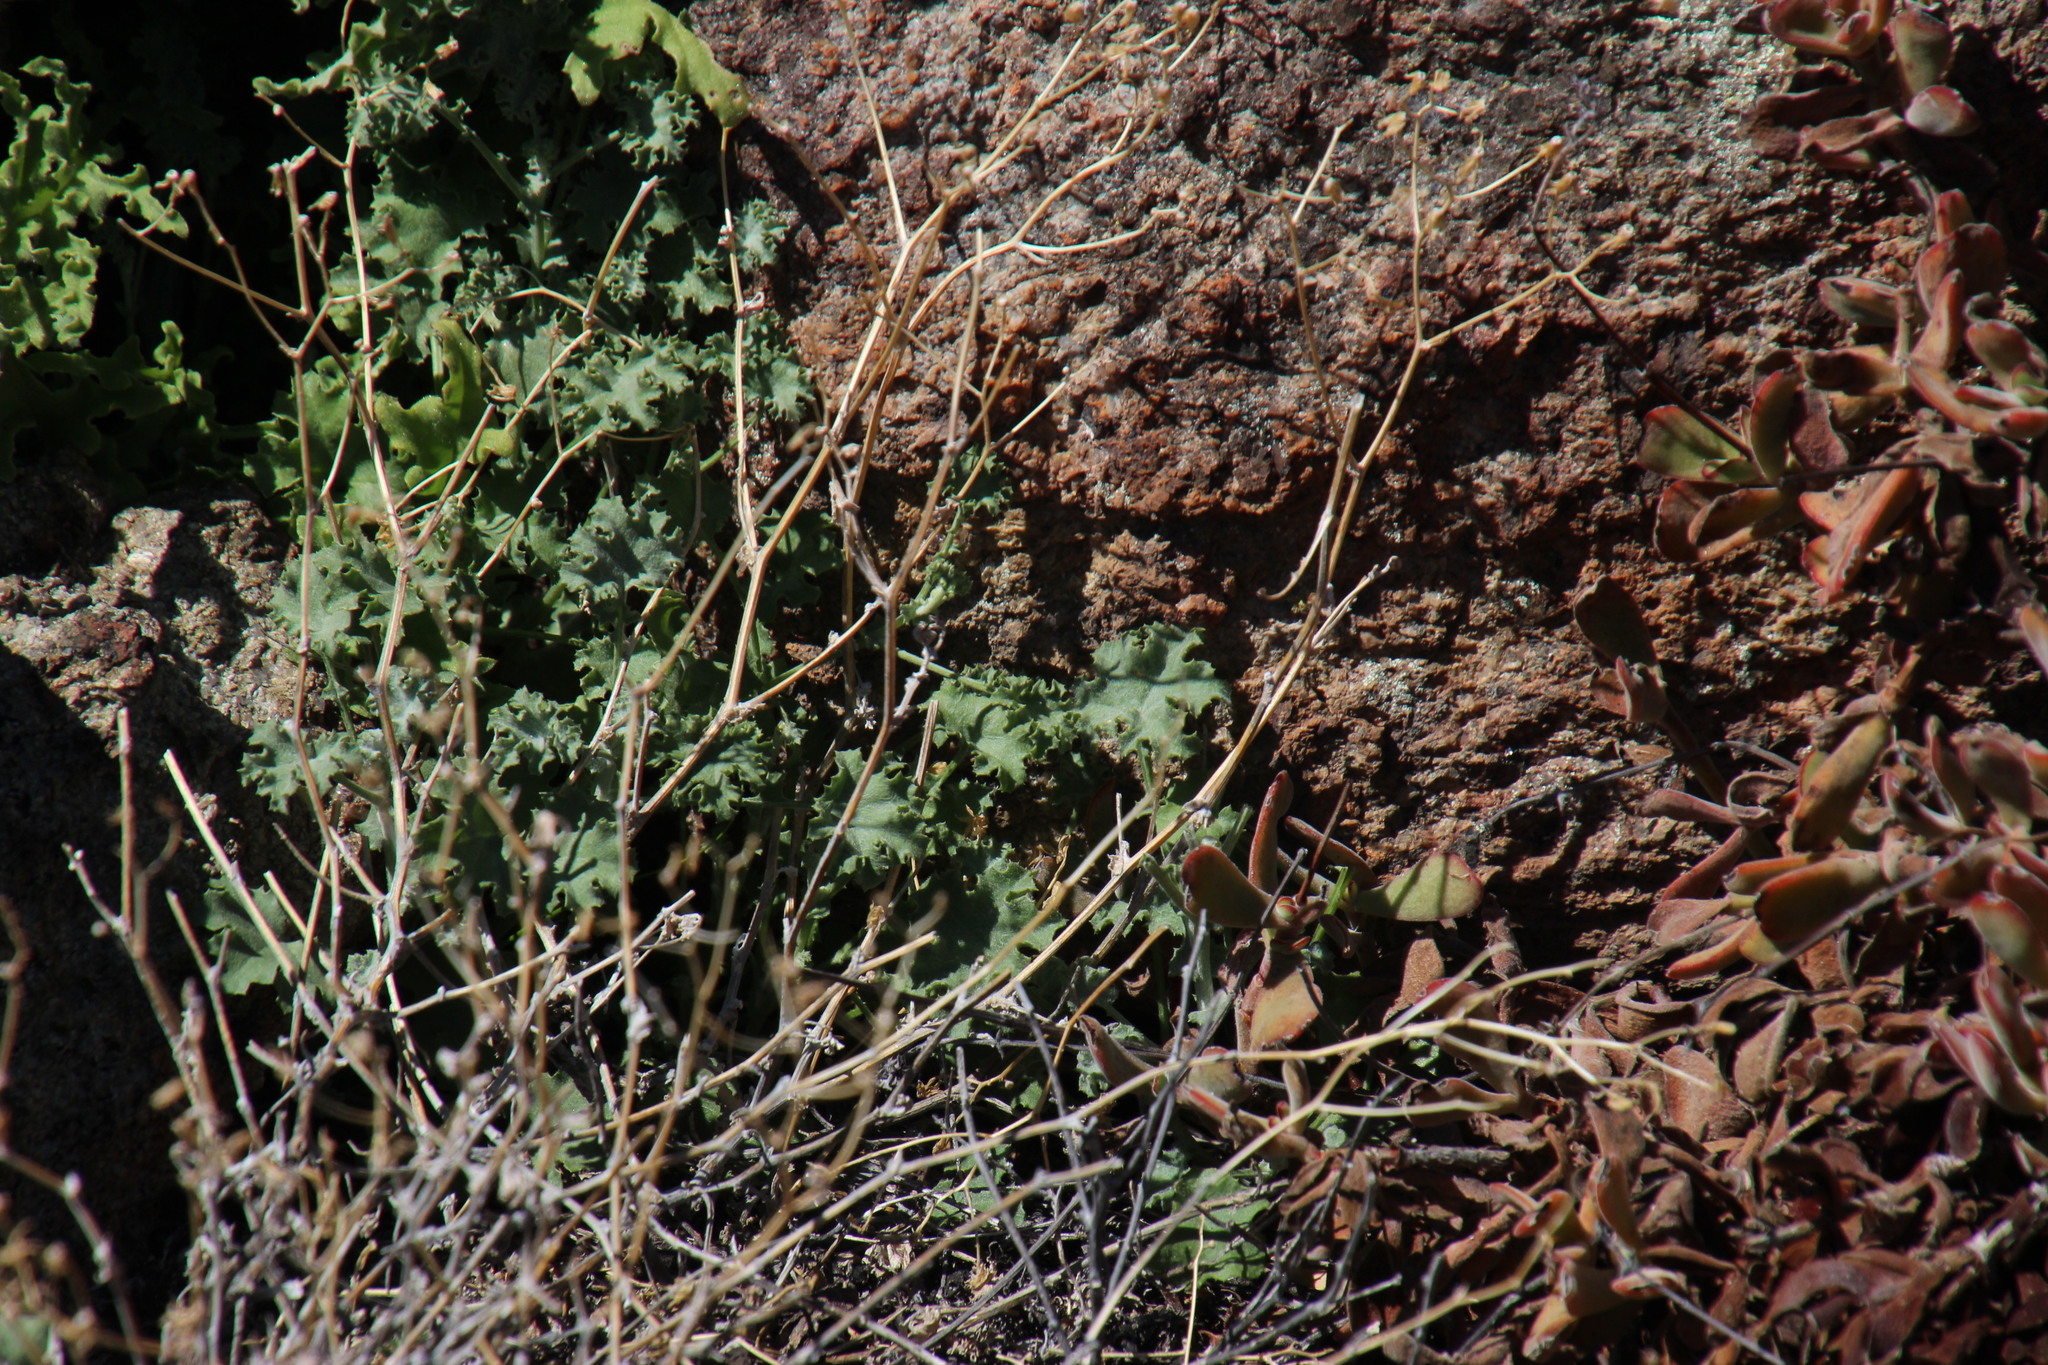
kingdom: Plantae
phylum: Tracheophyta
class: Magnoliopsida
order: Asterales
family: Asteraceae
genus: Cineraria
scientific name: Cineraria erosa
